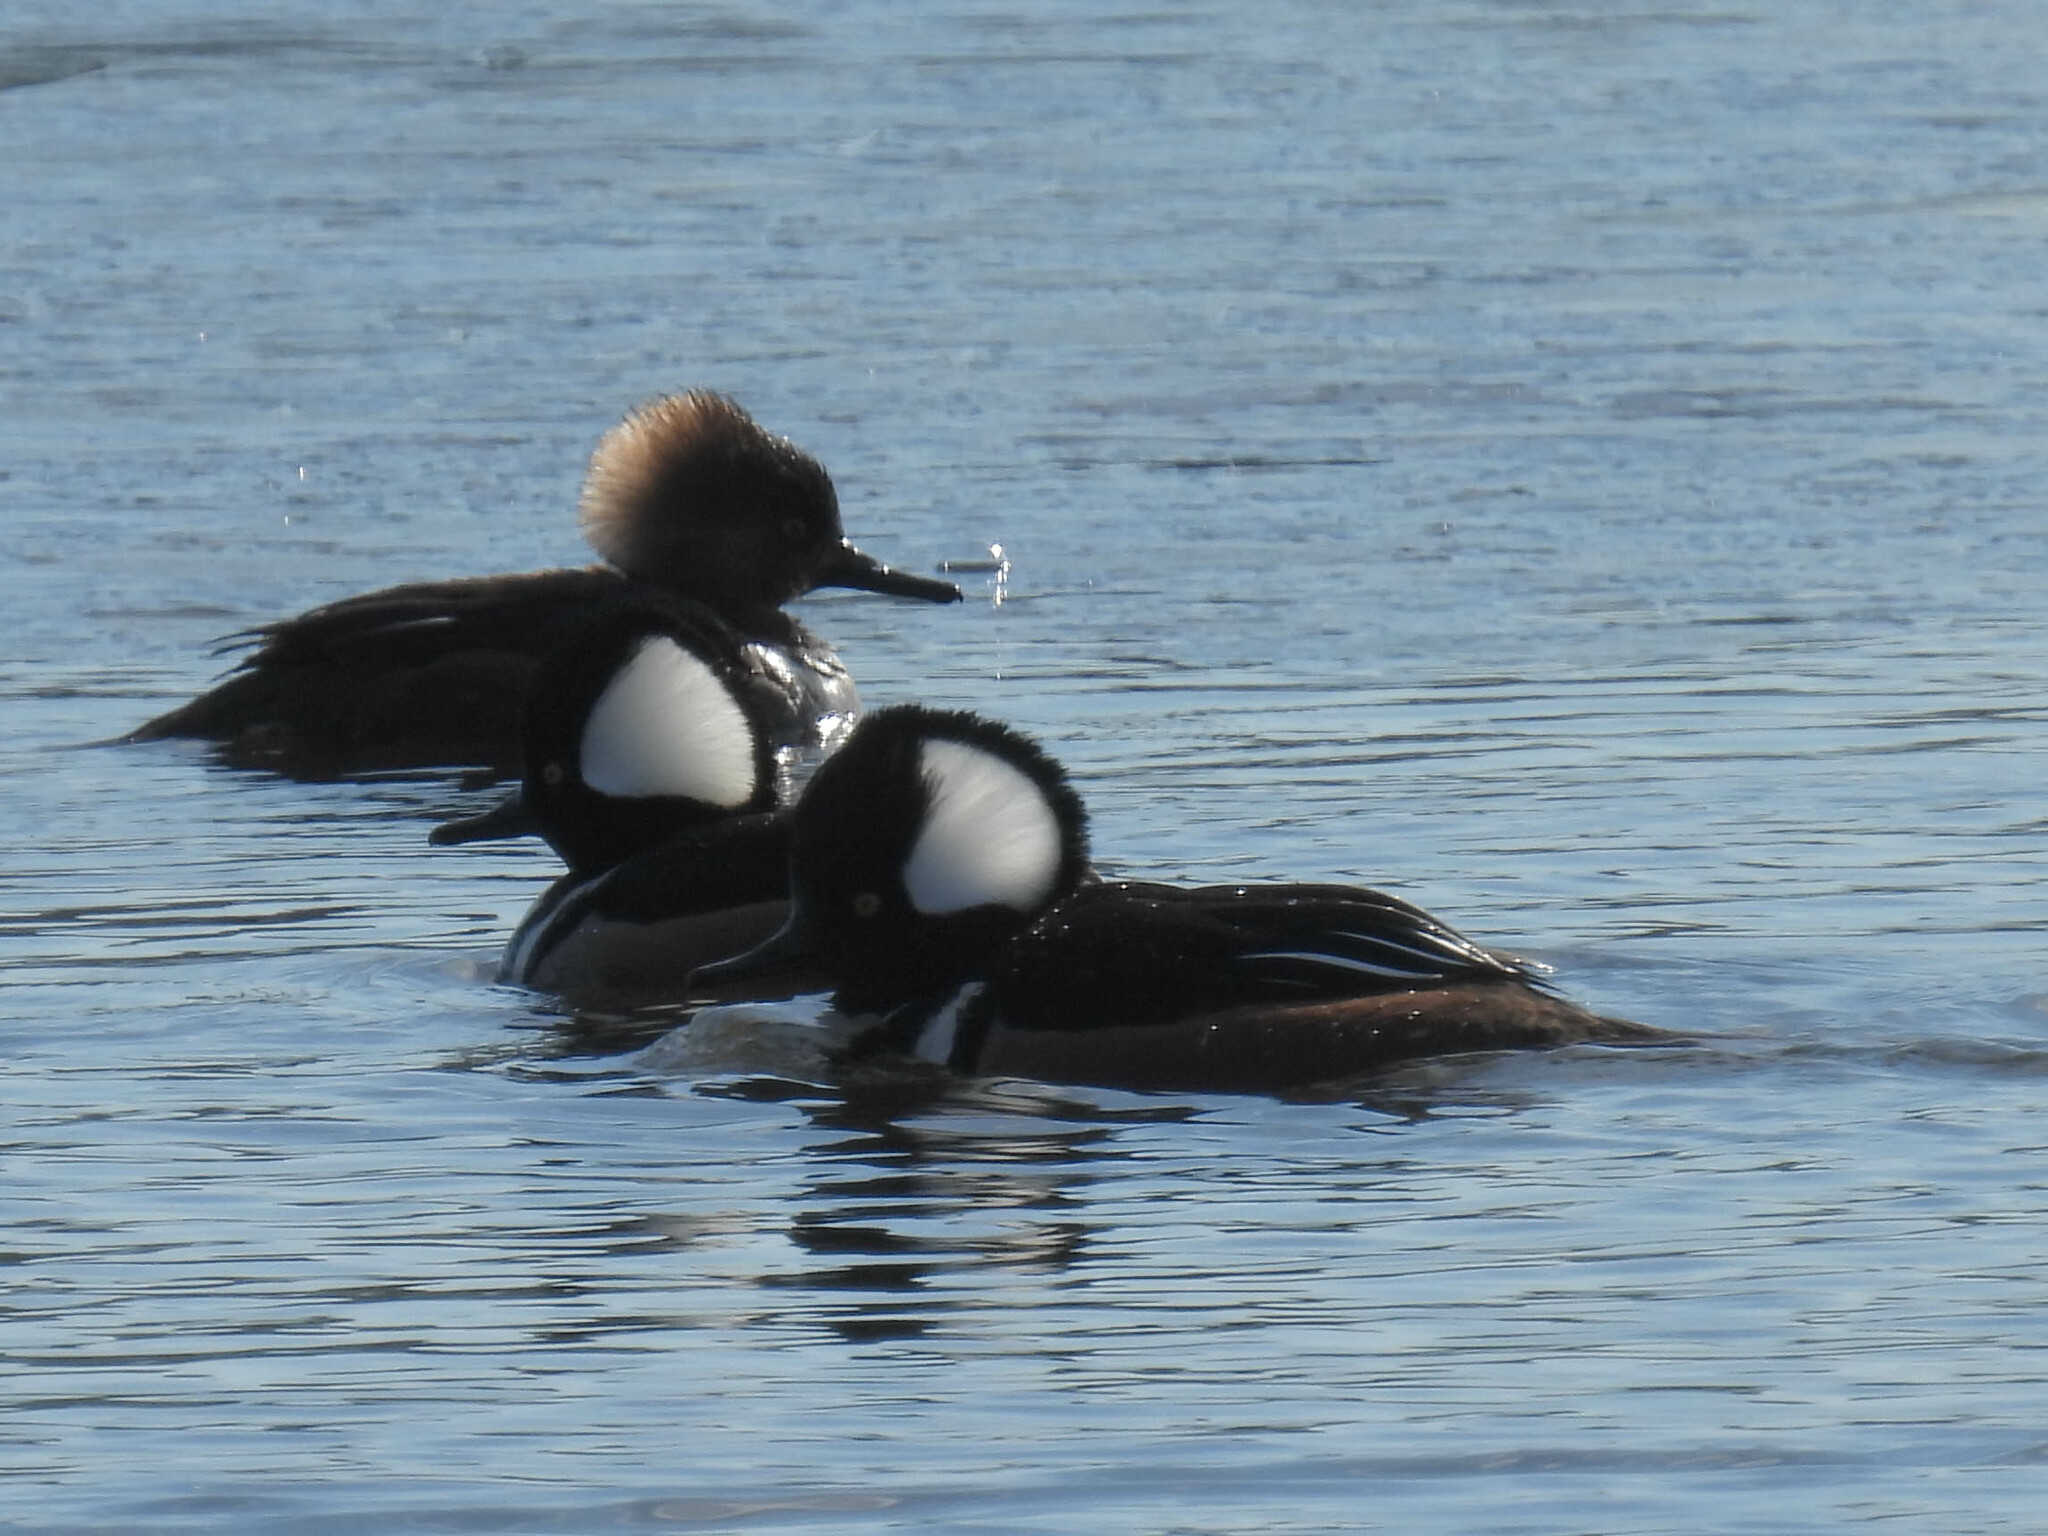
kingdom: Animalia
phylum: Chordata
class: Aves
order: Anseriformes
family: Anatidae
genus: Lophodytes
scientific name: Lophodytes cucullatus
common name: Hooded merganser
